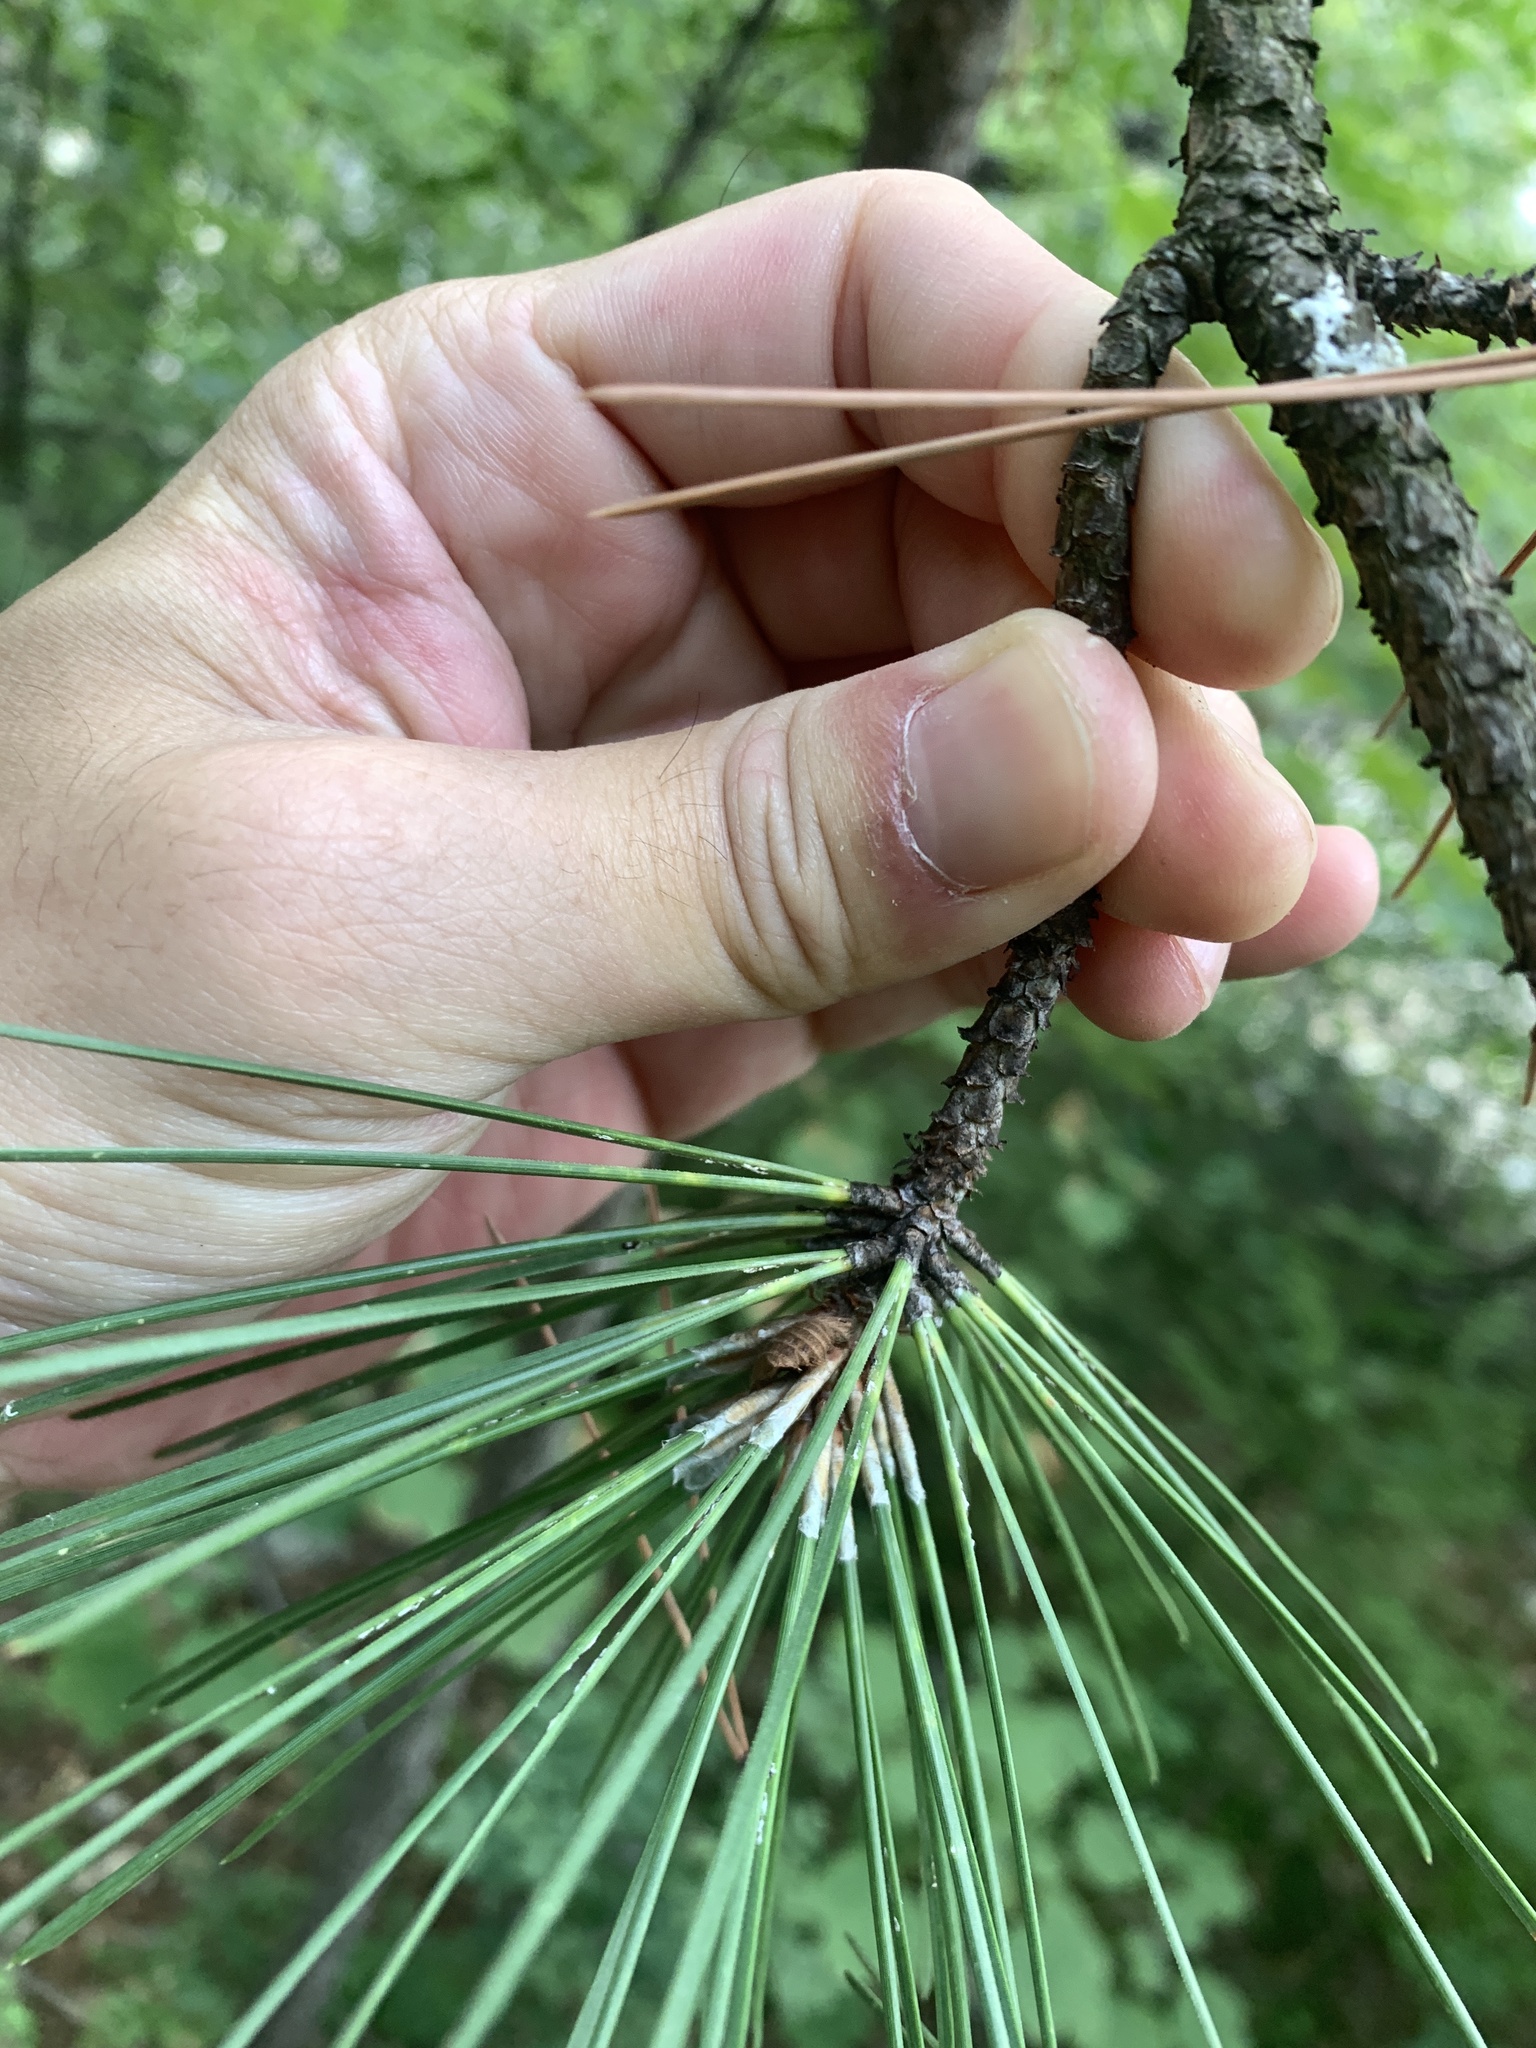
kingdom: Plantae
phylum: Tracheophyta
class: Pinopsida
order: Pinales
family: Pinaceae
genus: Pinus
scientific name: Pinus nigra
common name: Austrian pine
